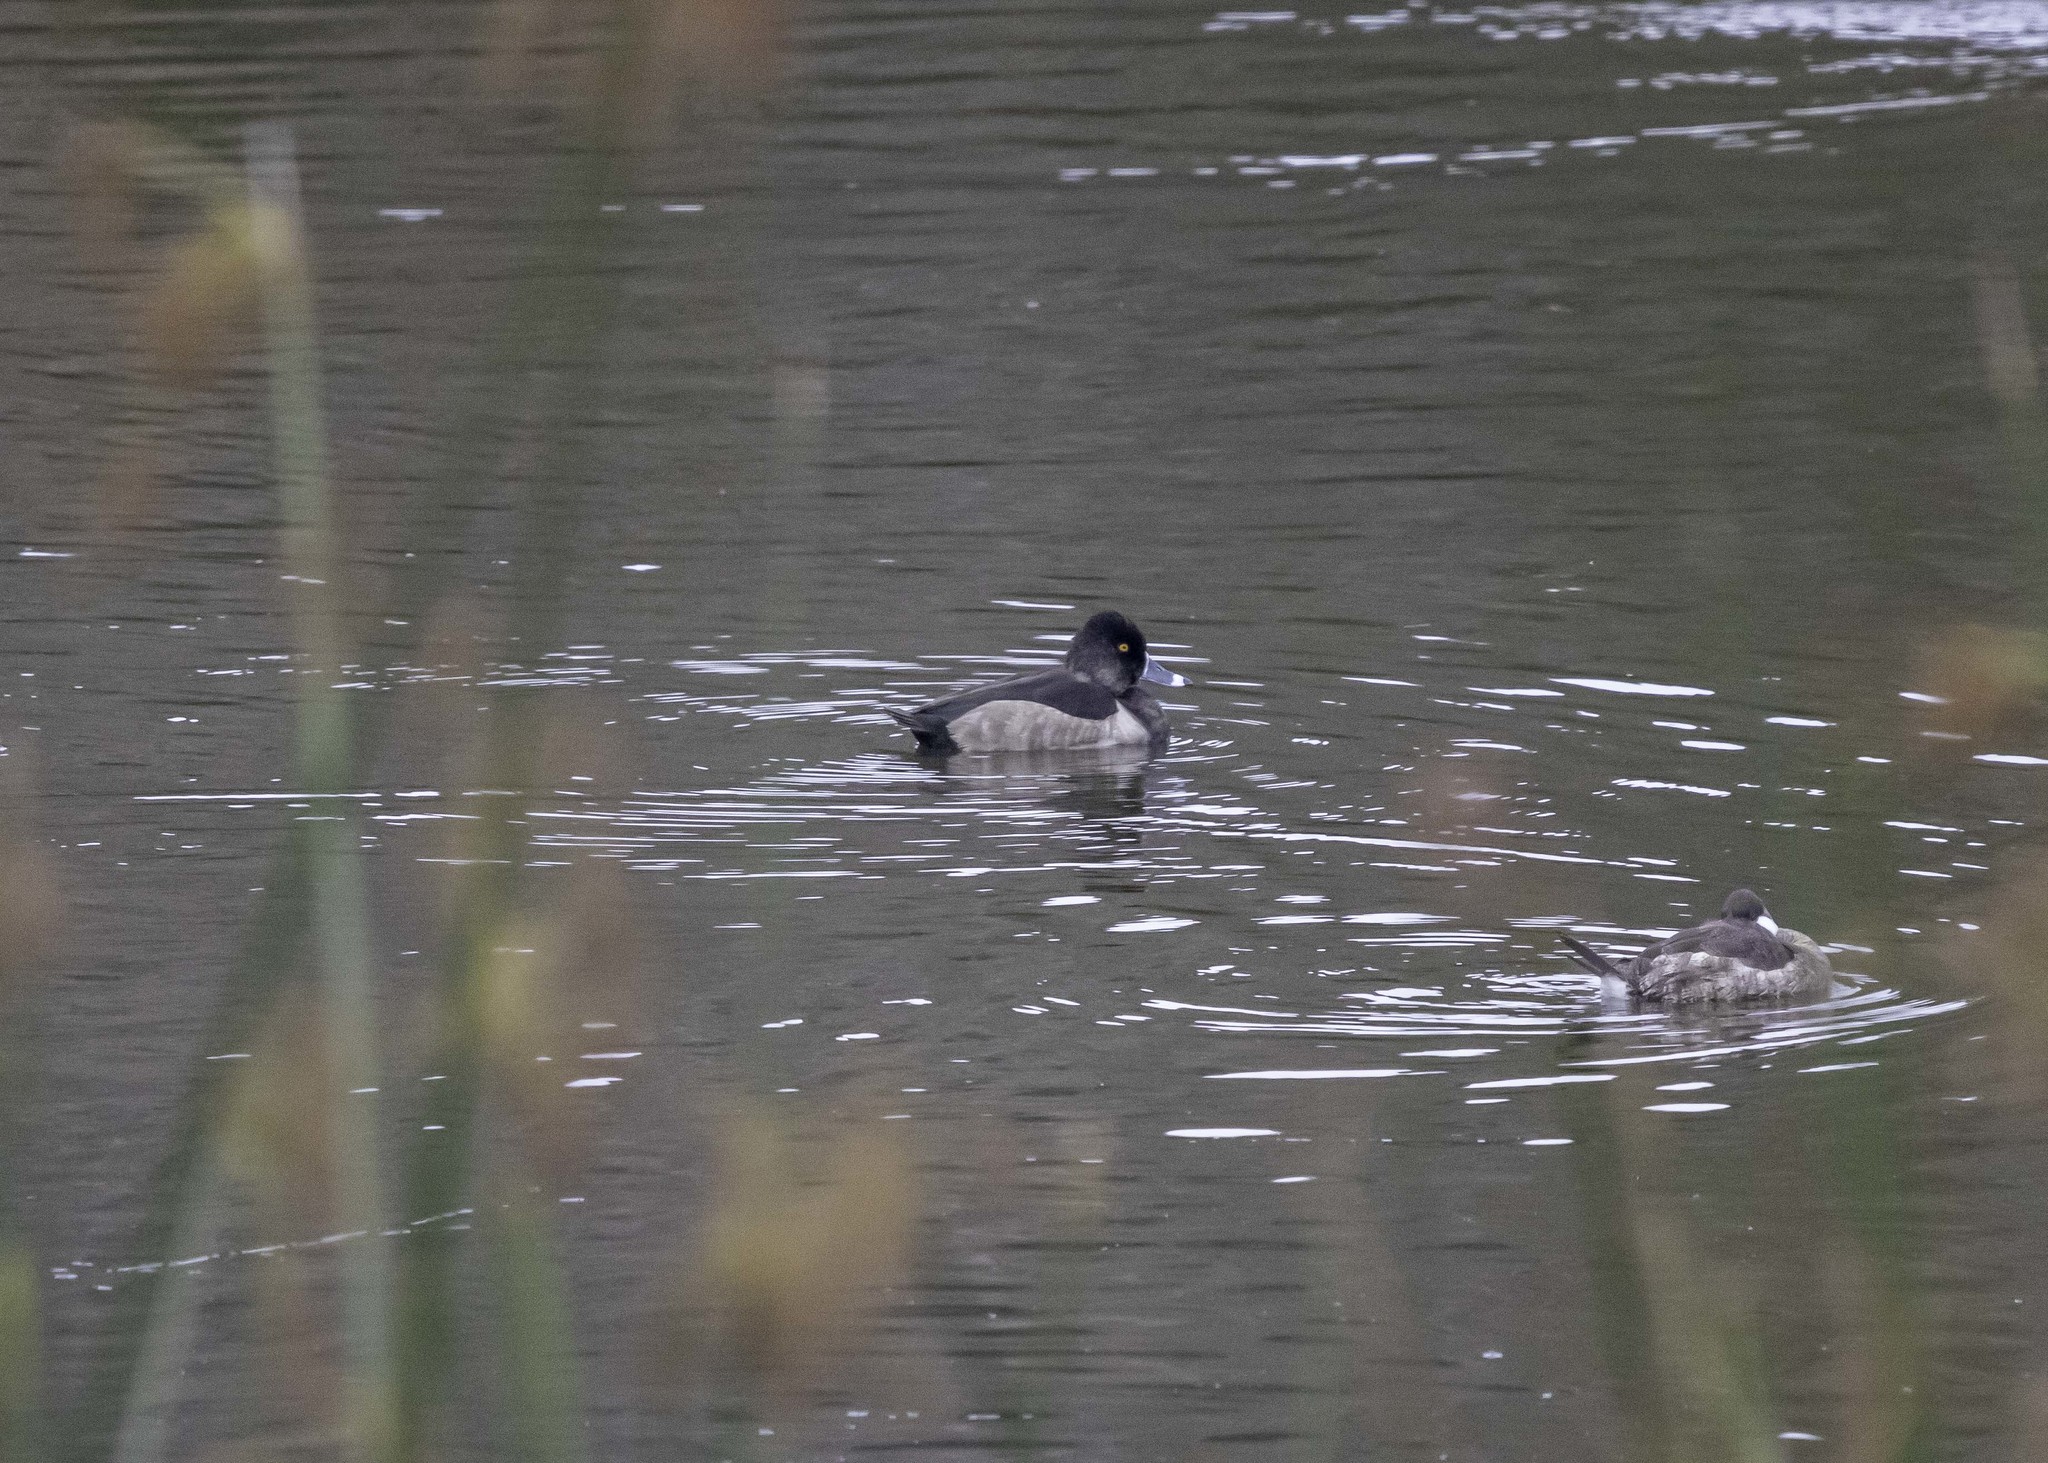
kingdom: Animalia
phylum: Chordata
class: Aves
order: Anseriformes
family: Anatidae
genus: Aythya
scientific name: Aythya collaris
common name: Ring-necked duck
